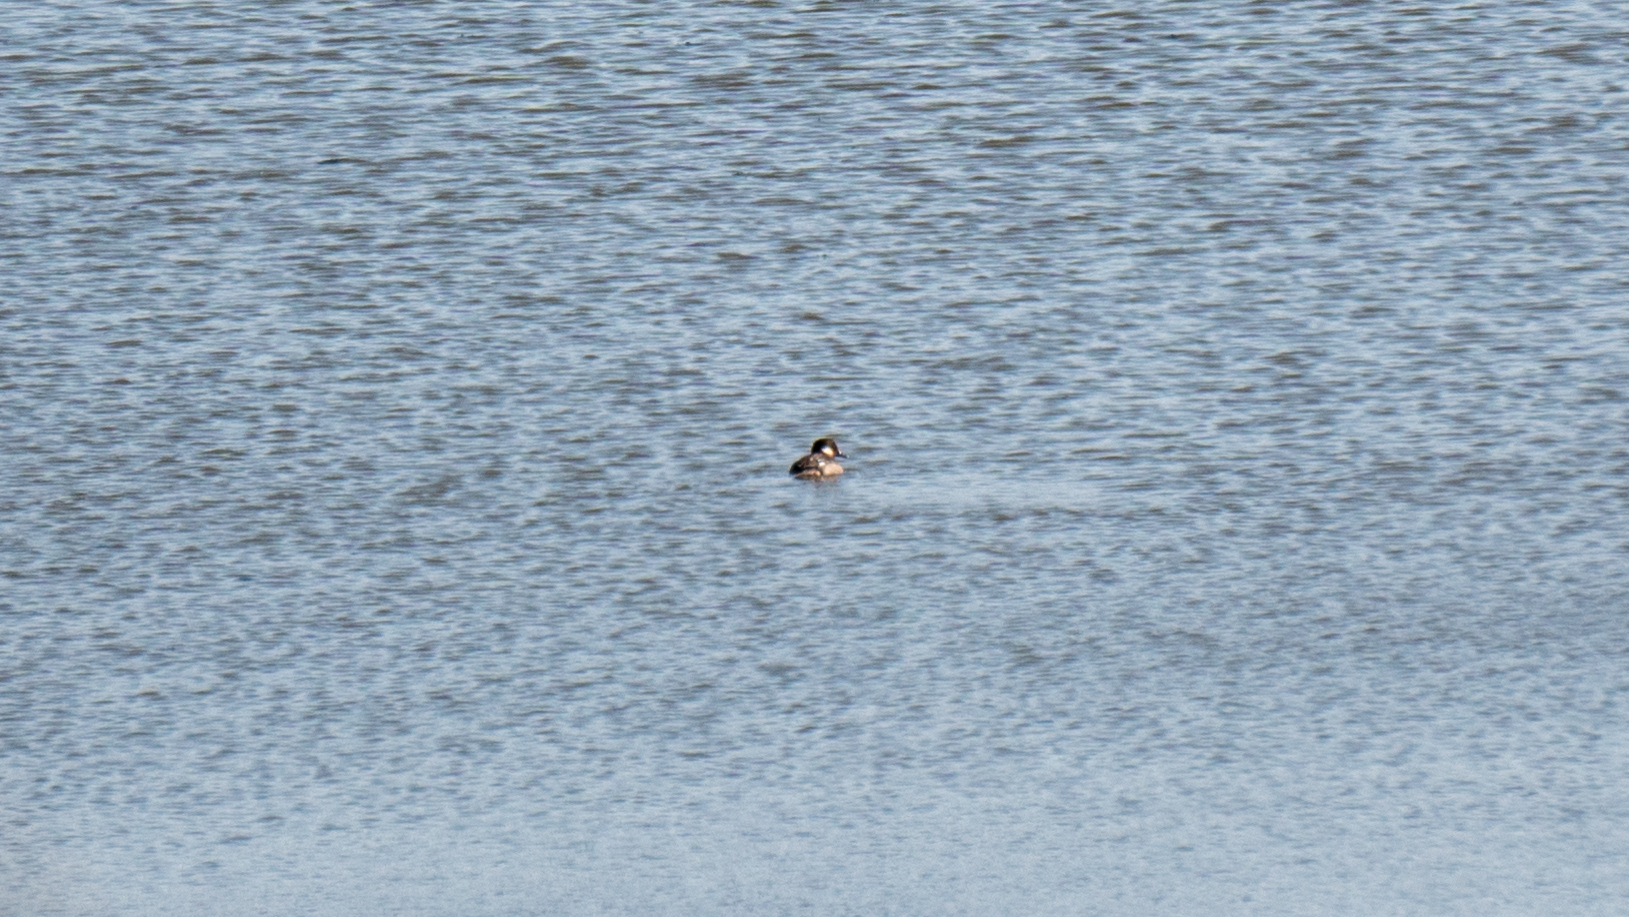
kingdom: Animalia
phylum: Chordata
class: Aves
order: Anseriformes
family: Anatidae
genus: Bucephala
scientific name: Bucephala albeola
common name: Bufflehead
